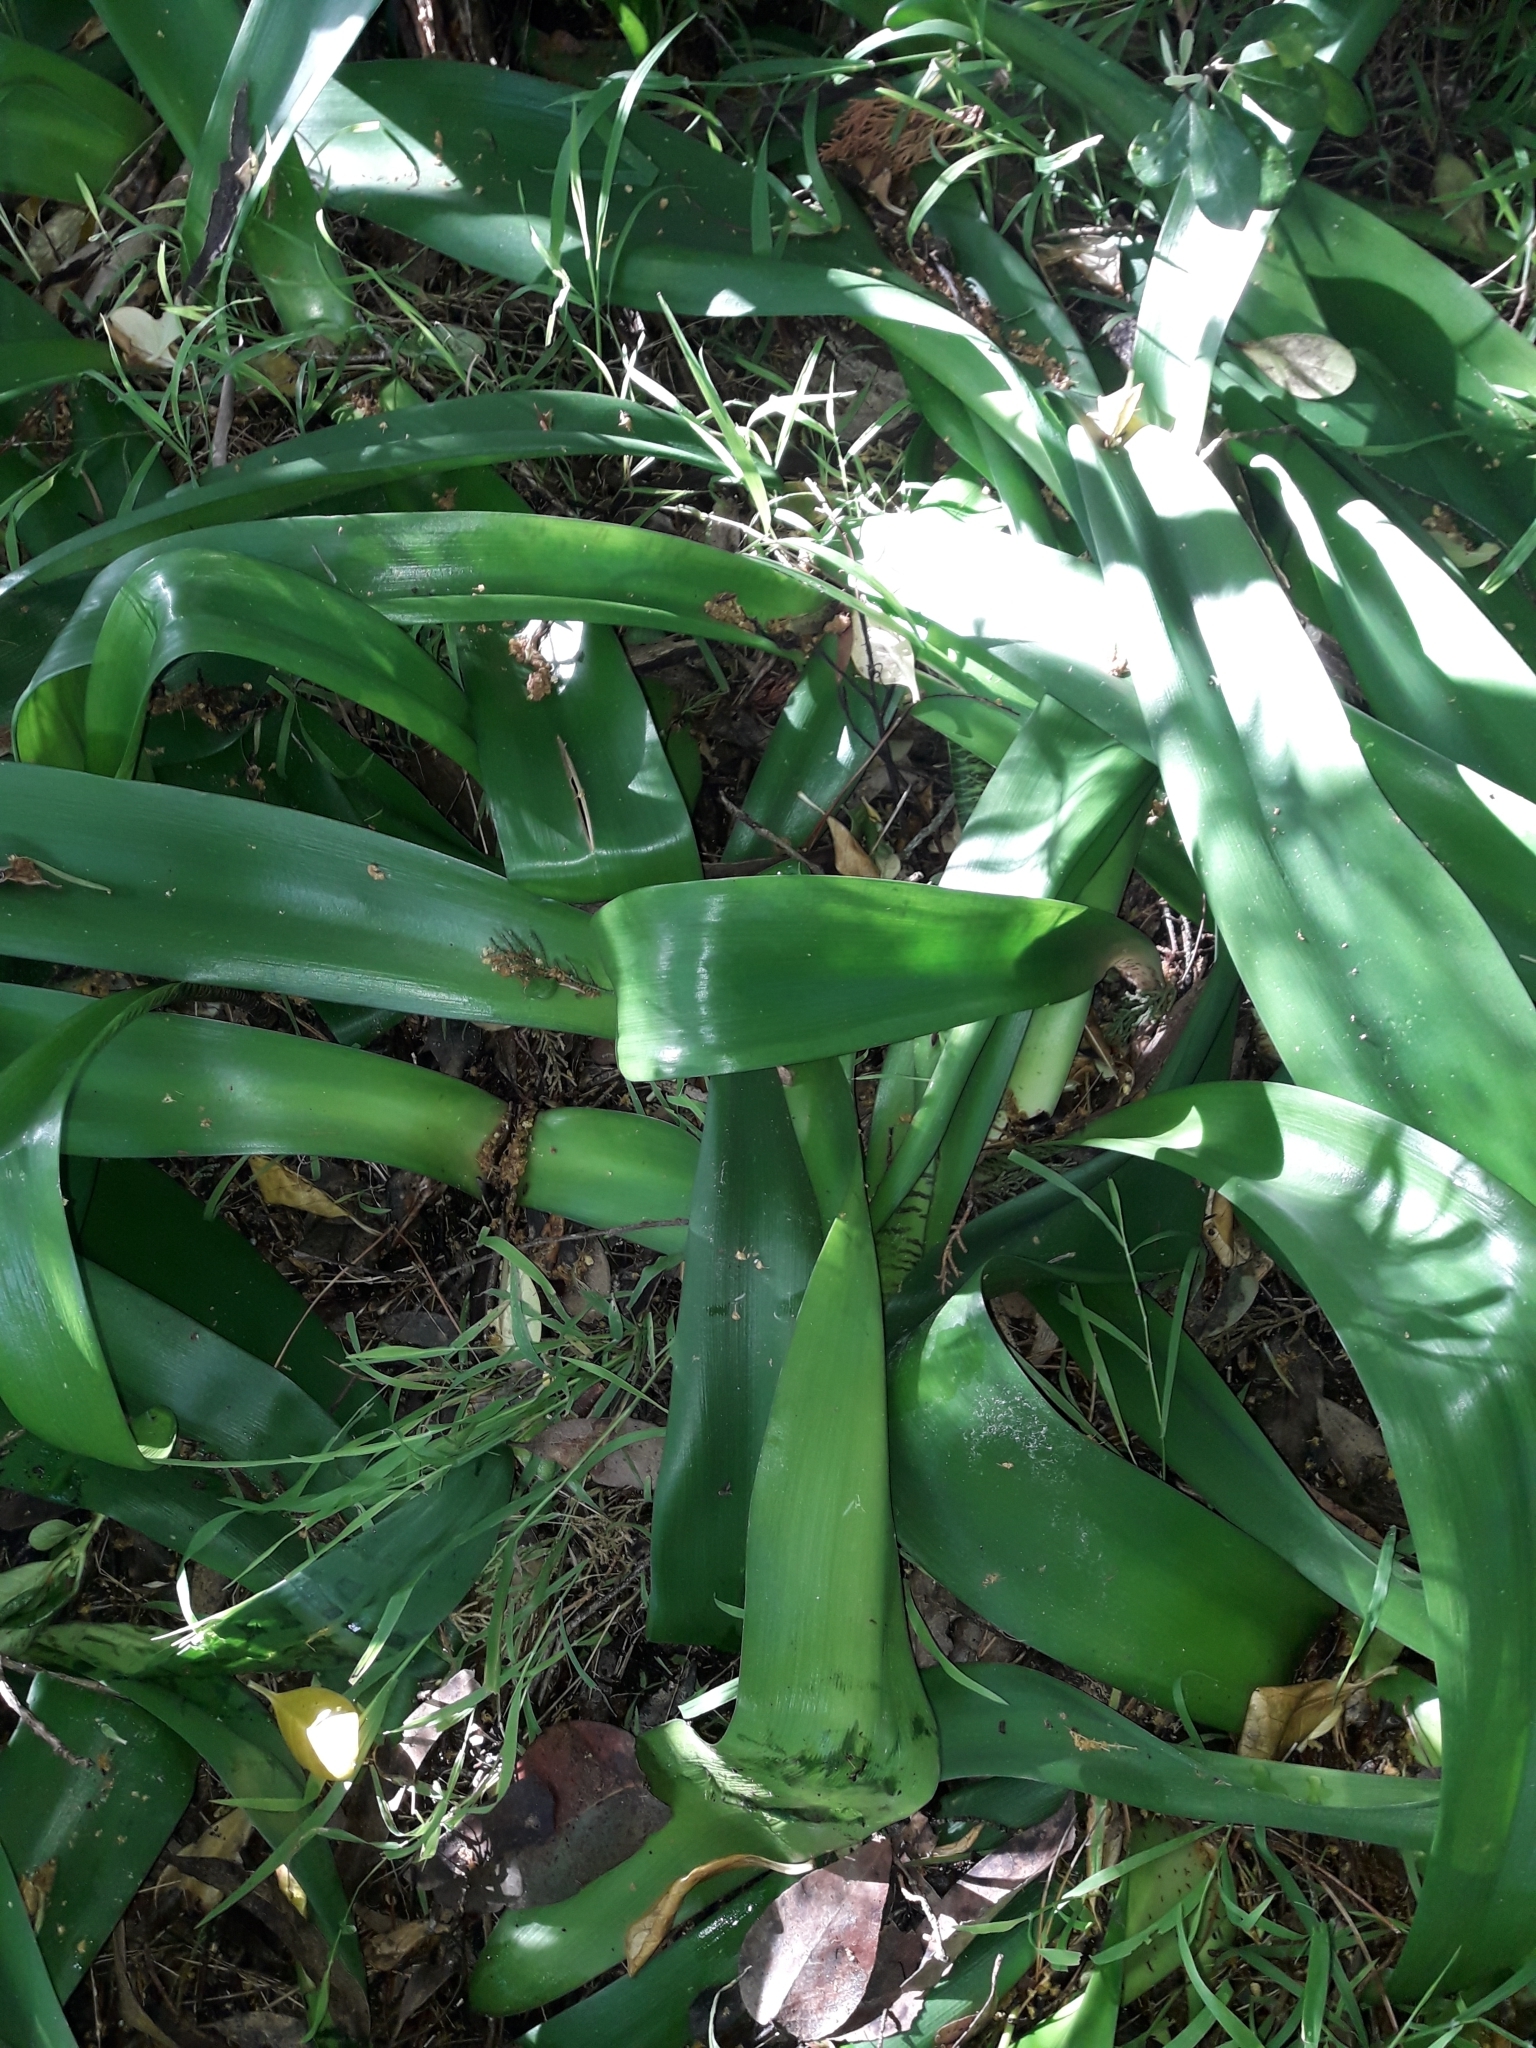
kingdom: Plantae
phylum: Tracheophyta
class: Liliopsida
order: Asparagales
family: Amaryllidaceae
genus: Haemanthus
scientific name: Haemanthus coccineus
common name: Cape-tulip
